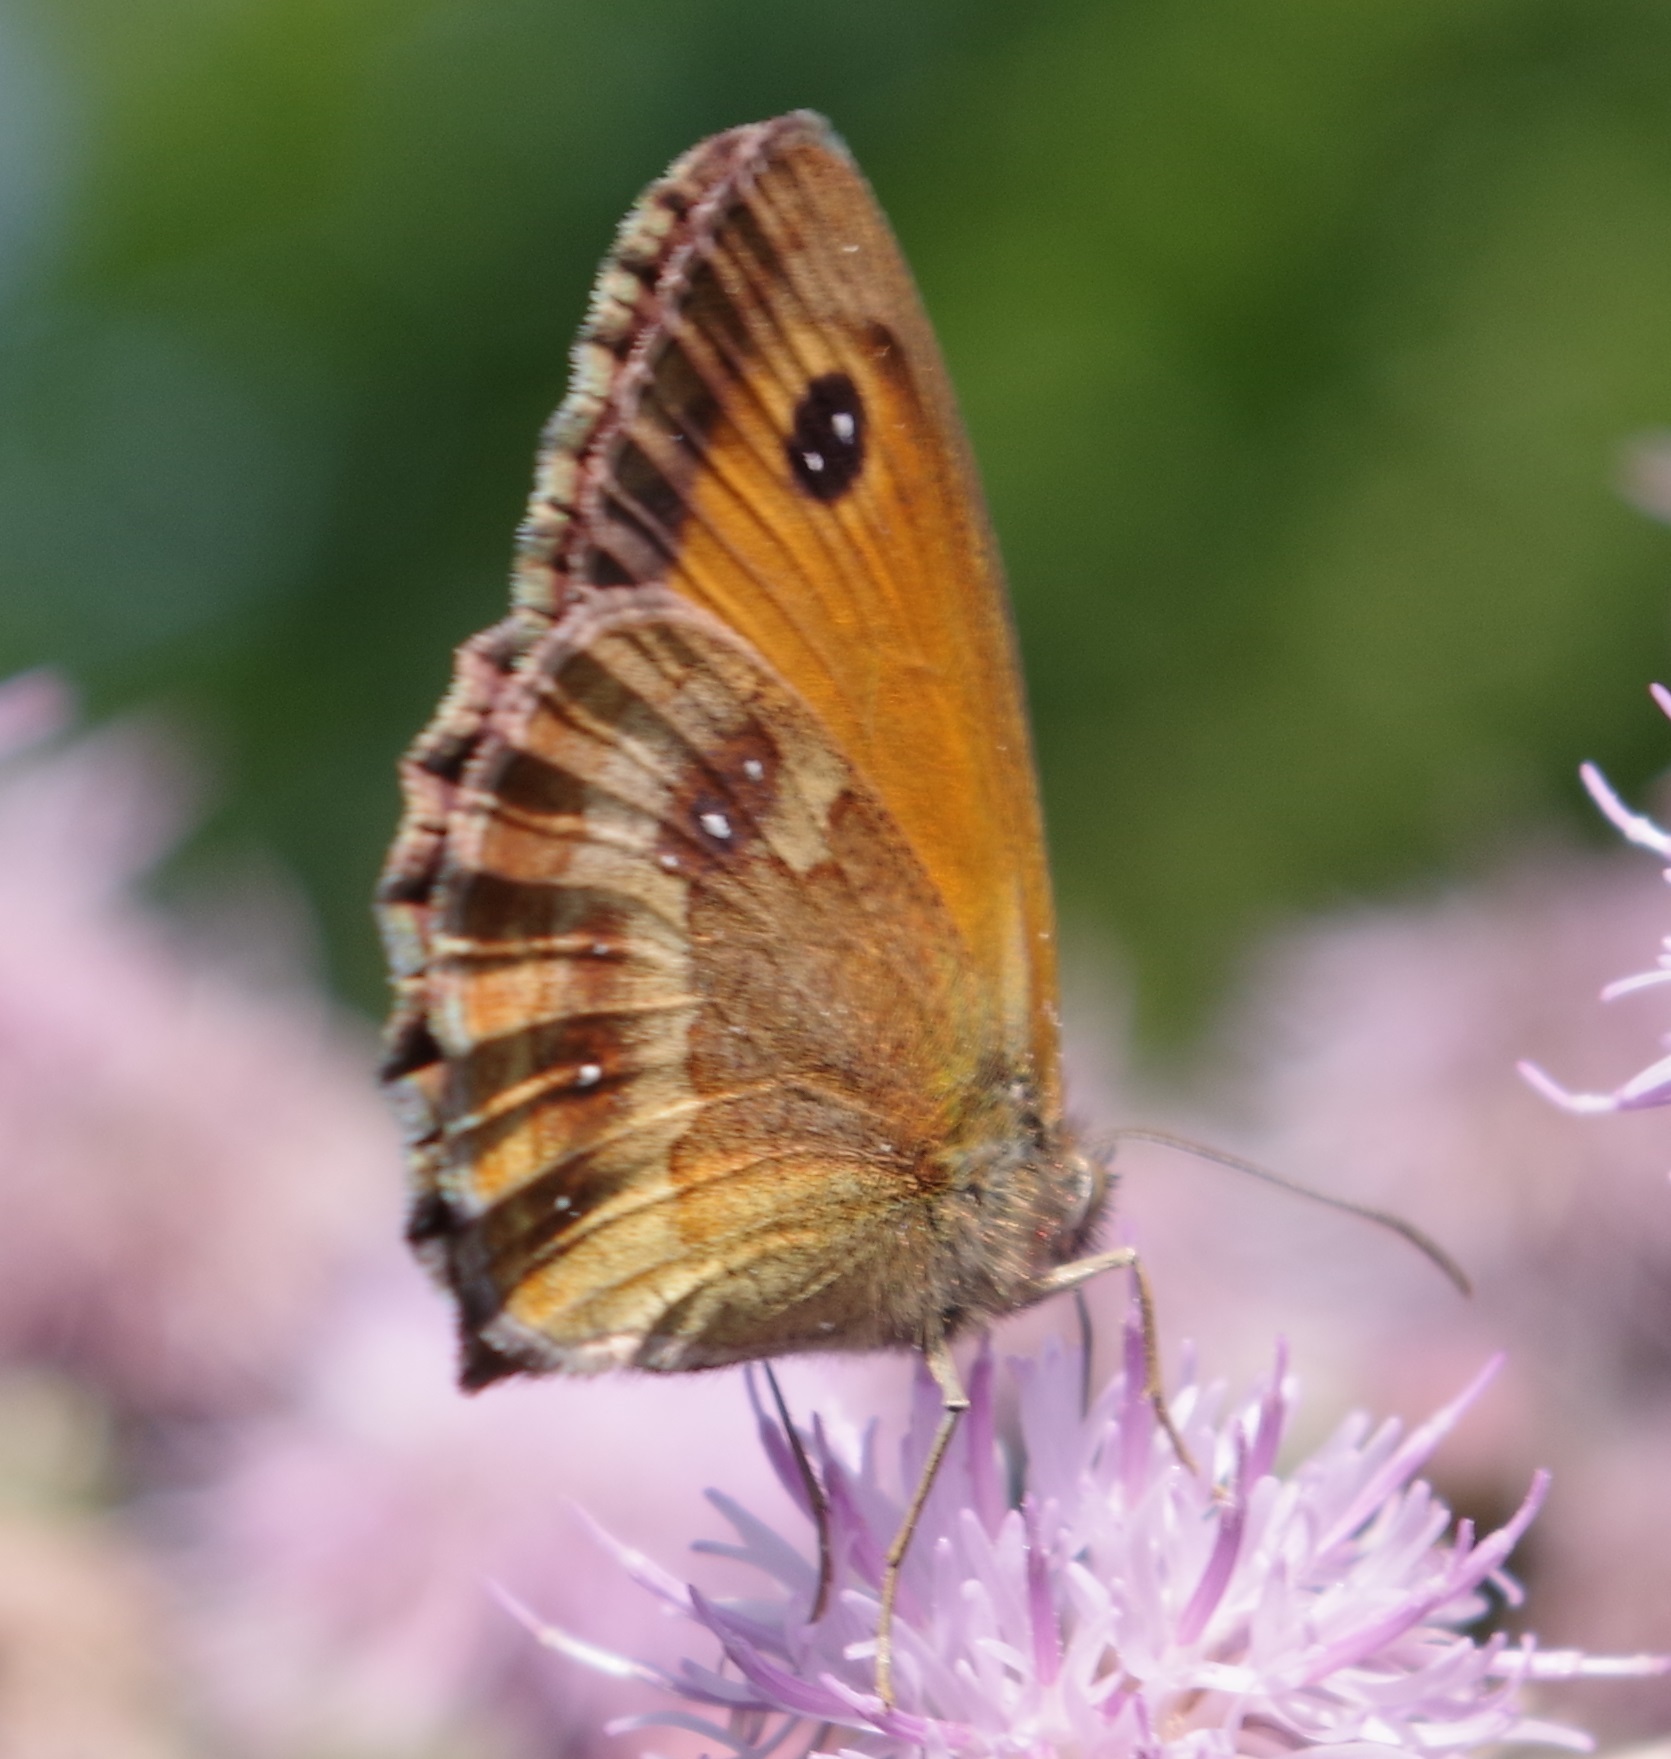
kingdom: Animalia
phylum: Arthropoda
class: Insecta
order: Lepidoptera
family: Nymphalidae
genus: Pyronia
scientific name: Pyronia tithonus
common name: Gatekeeper
